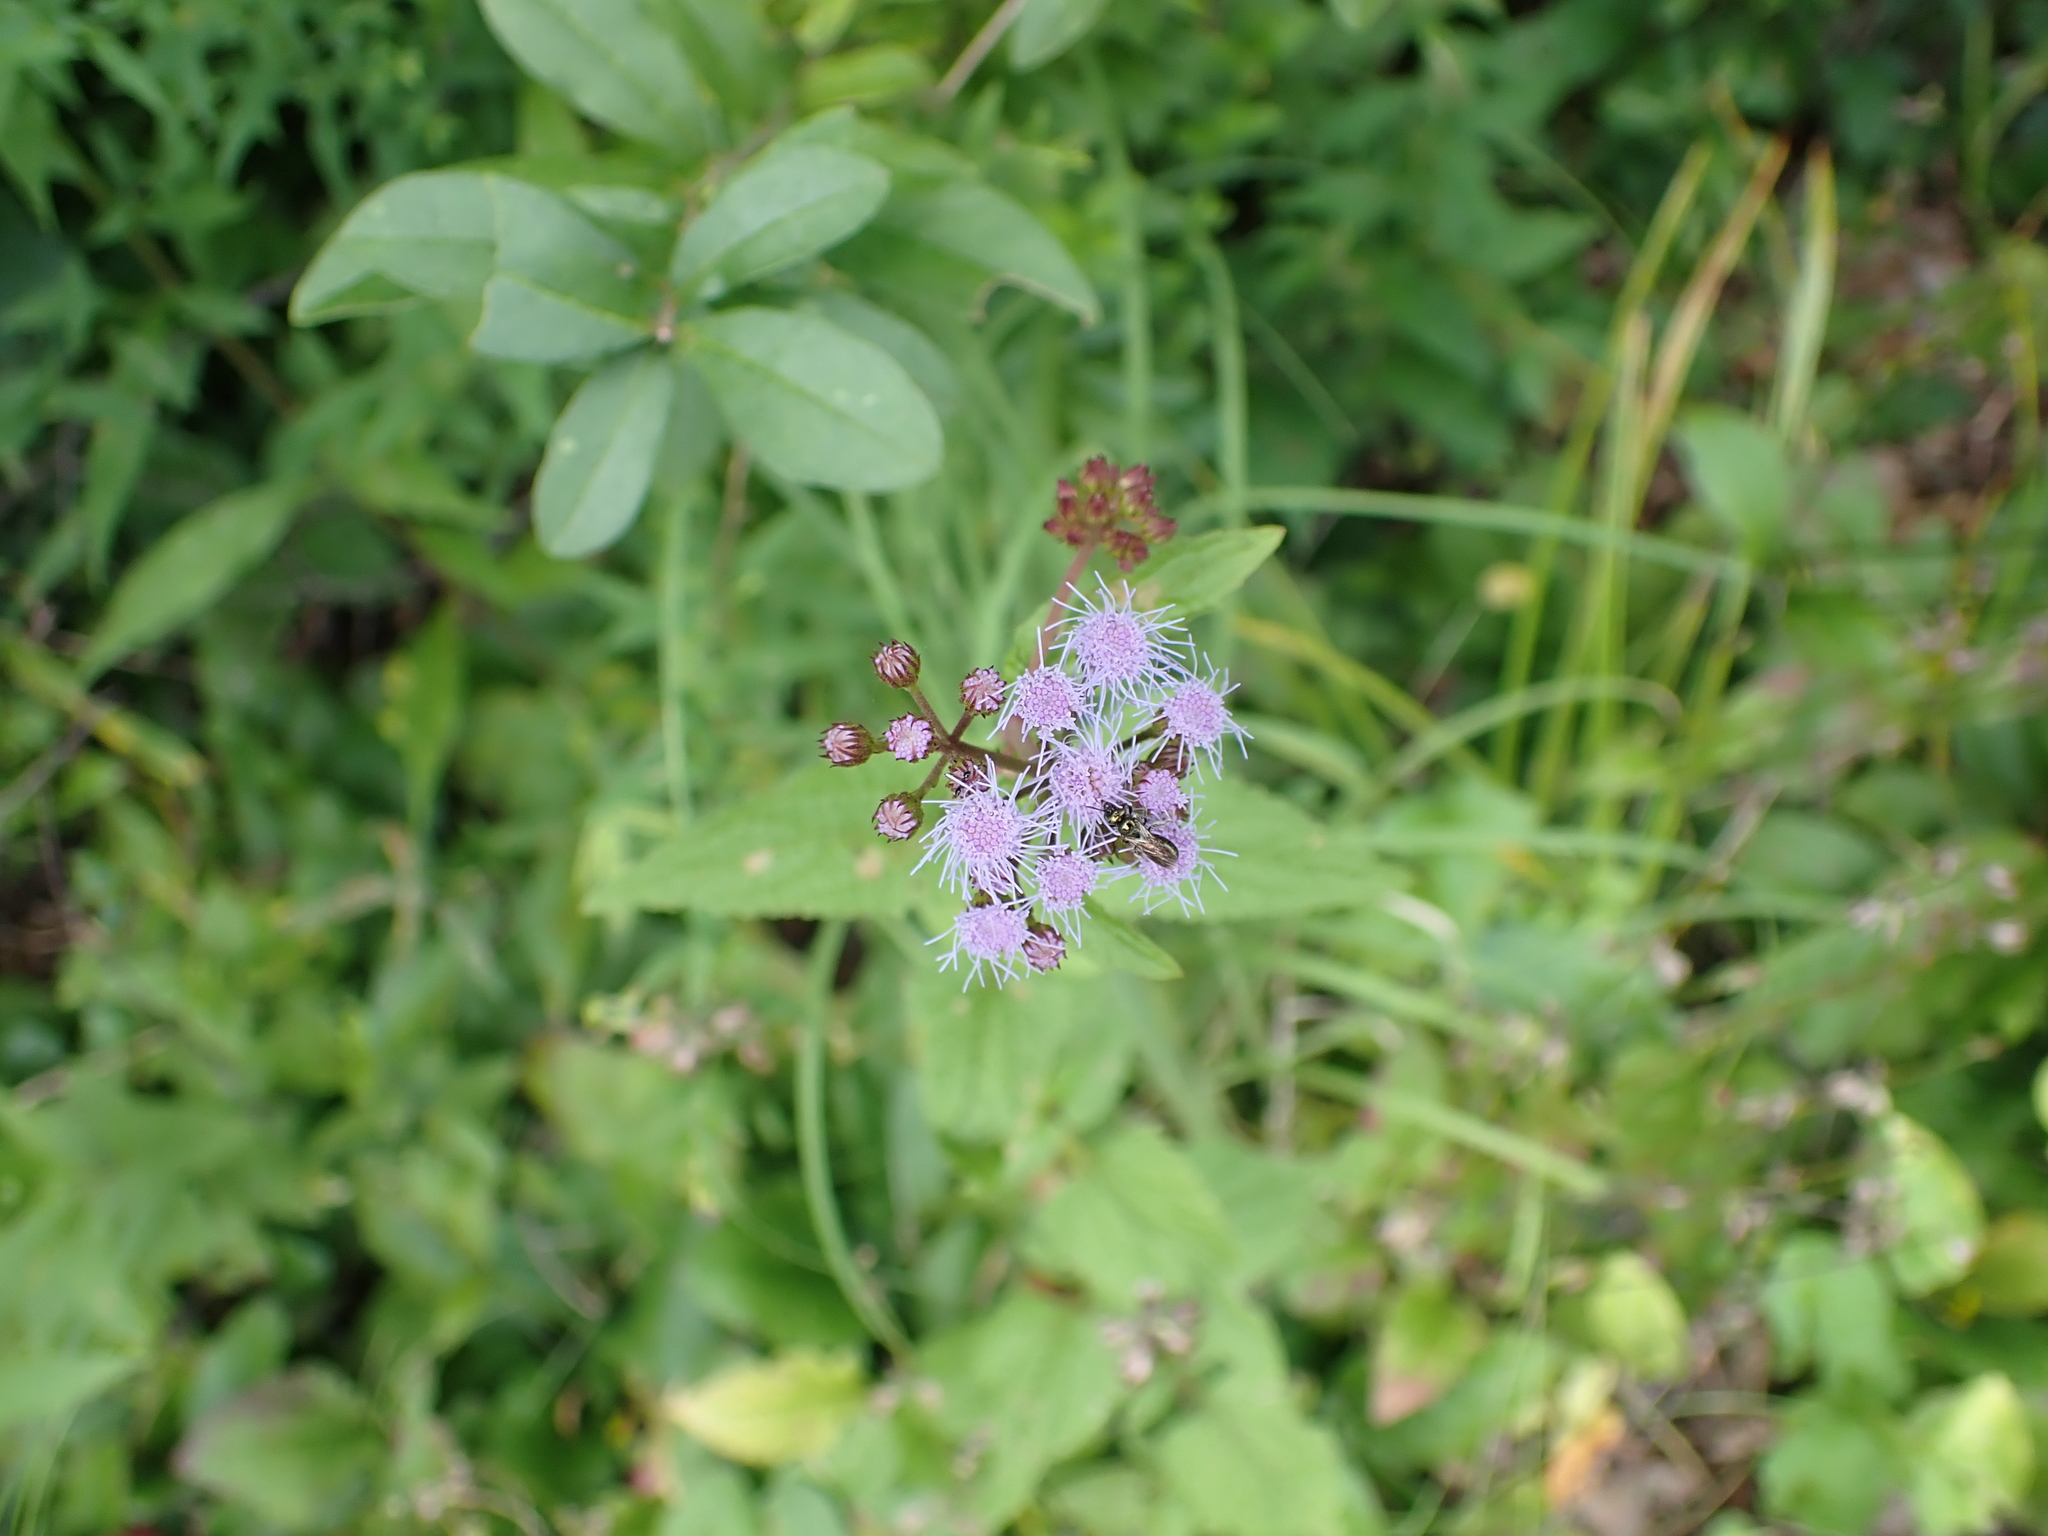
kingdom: Plantae
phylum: Tracheophyta
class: Magnoliopsida
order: Asterales
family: Asteraceae
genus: Conoclinium
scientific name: Conoclinium coelestinum
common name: Blue mistflower
